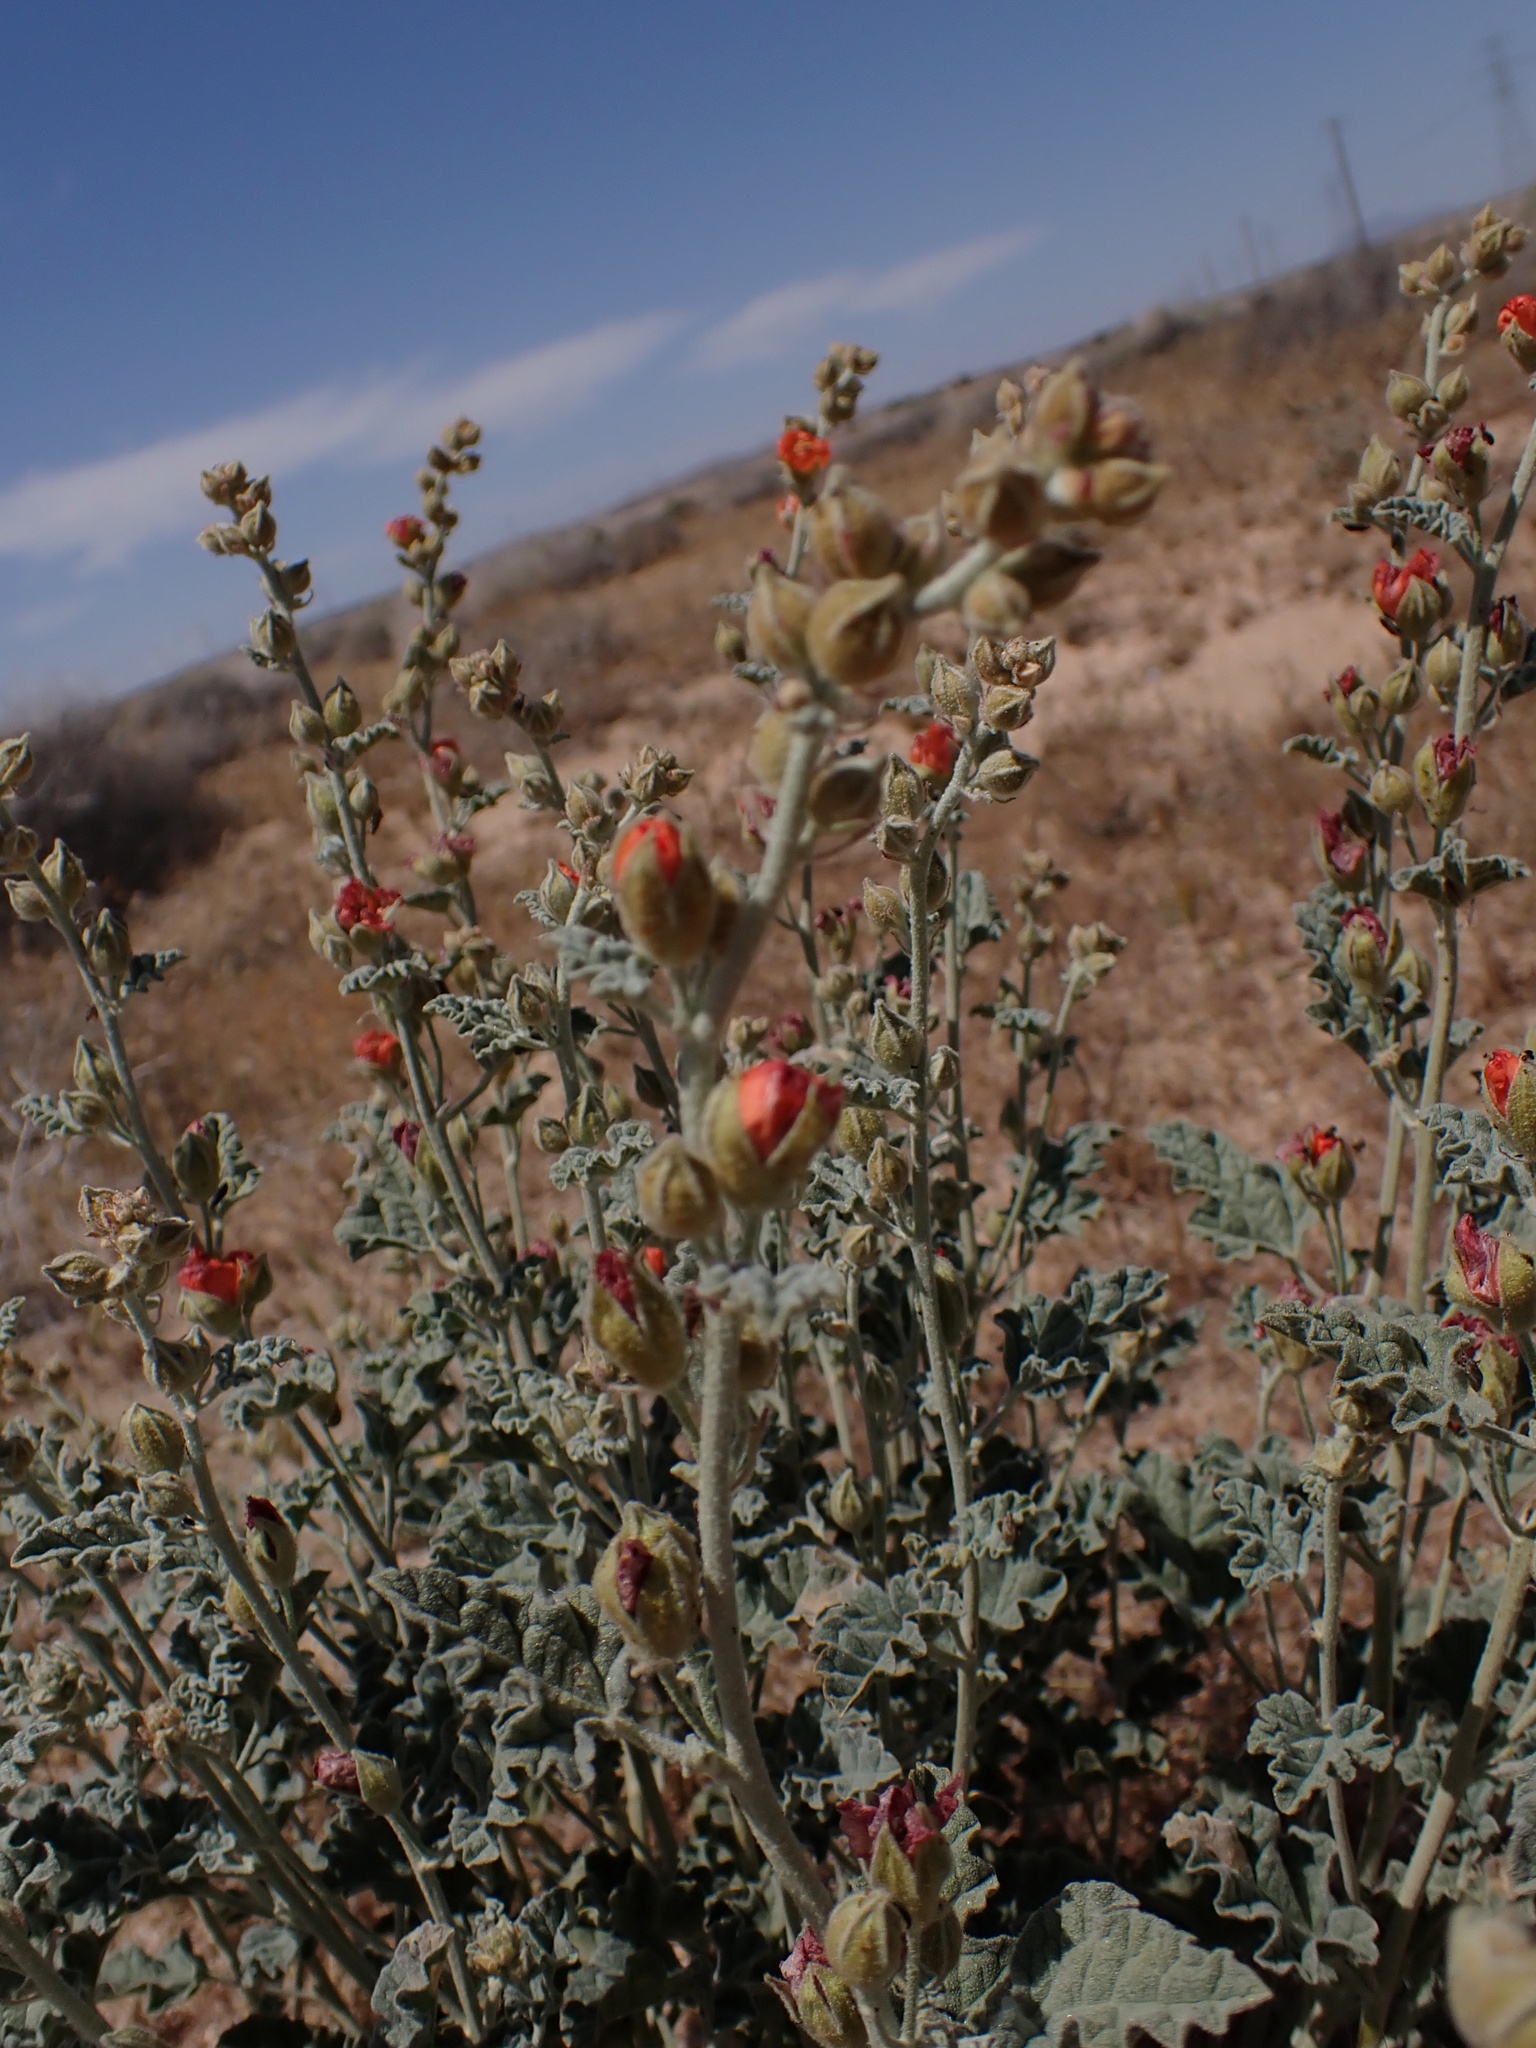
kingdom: Plantae
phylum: Tracheophyta
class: Magnoliopsida
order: Malvales
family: Malvaceae
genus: Sphaeralcea
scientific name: Sphaeralcea ambigua
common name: Apricot globe-mallow
